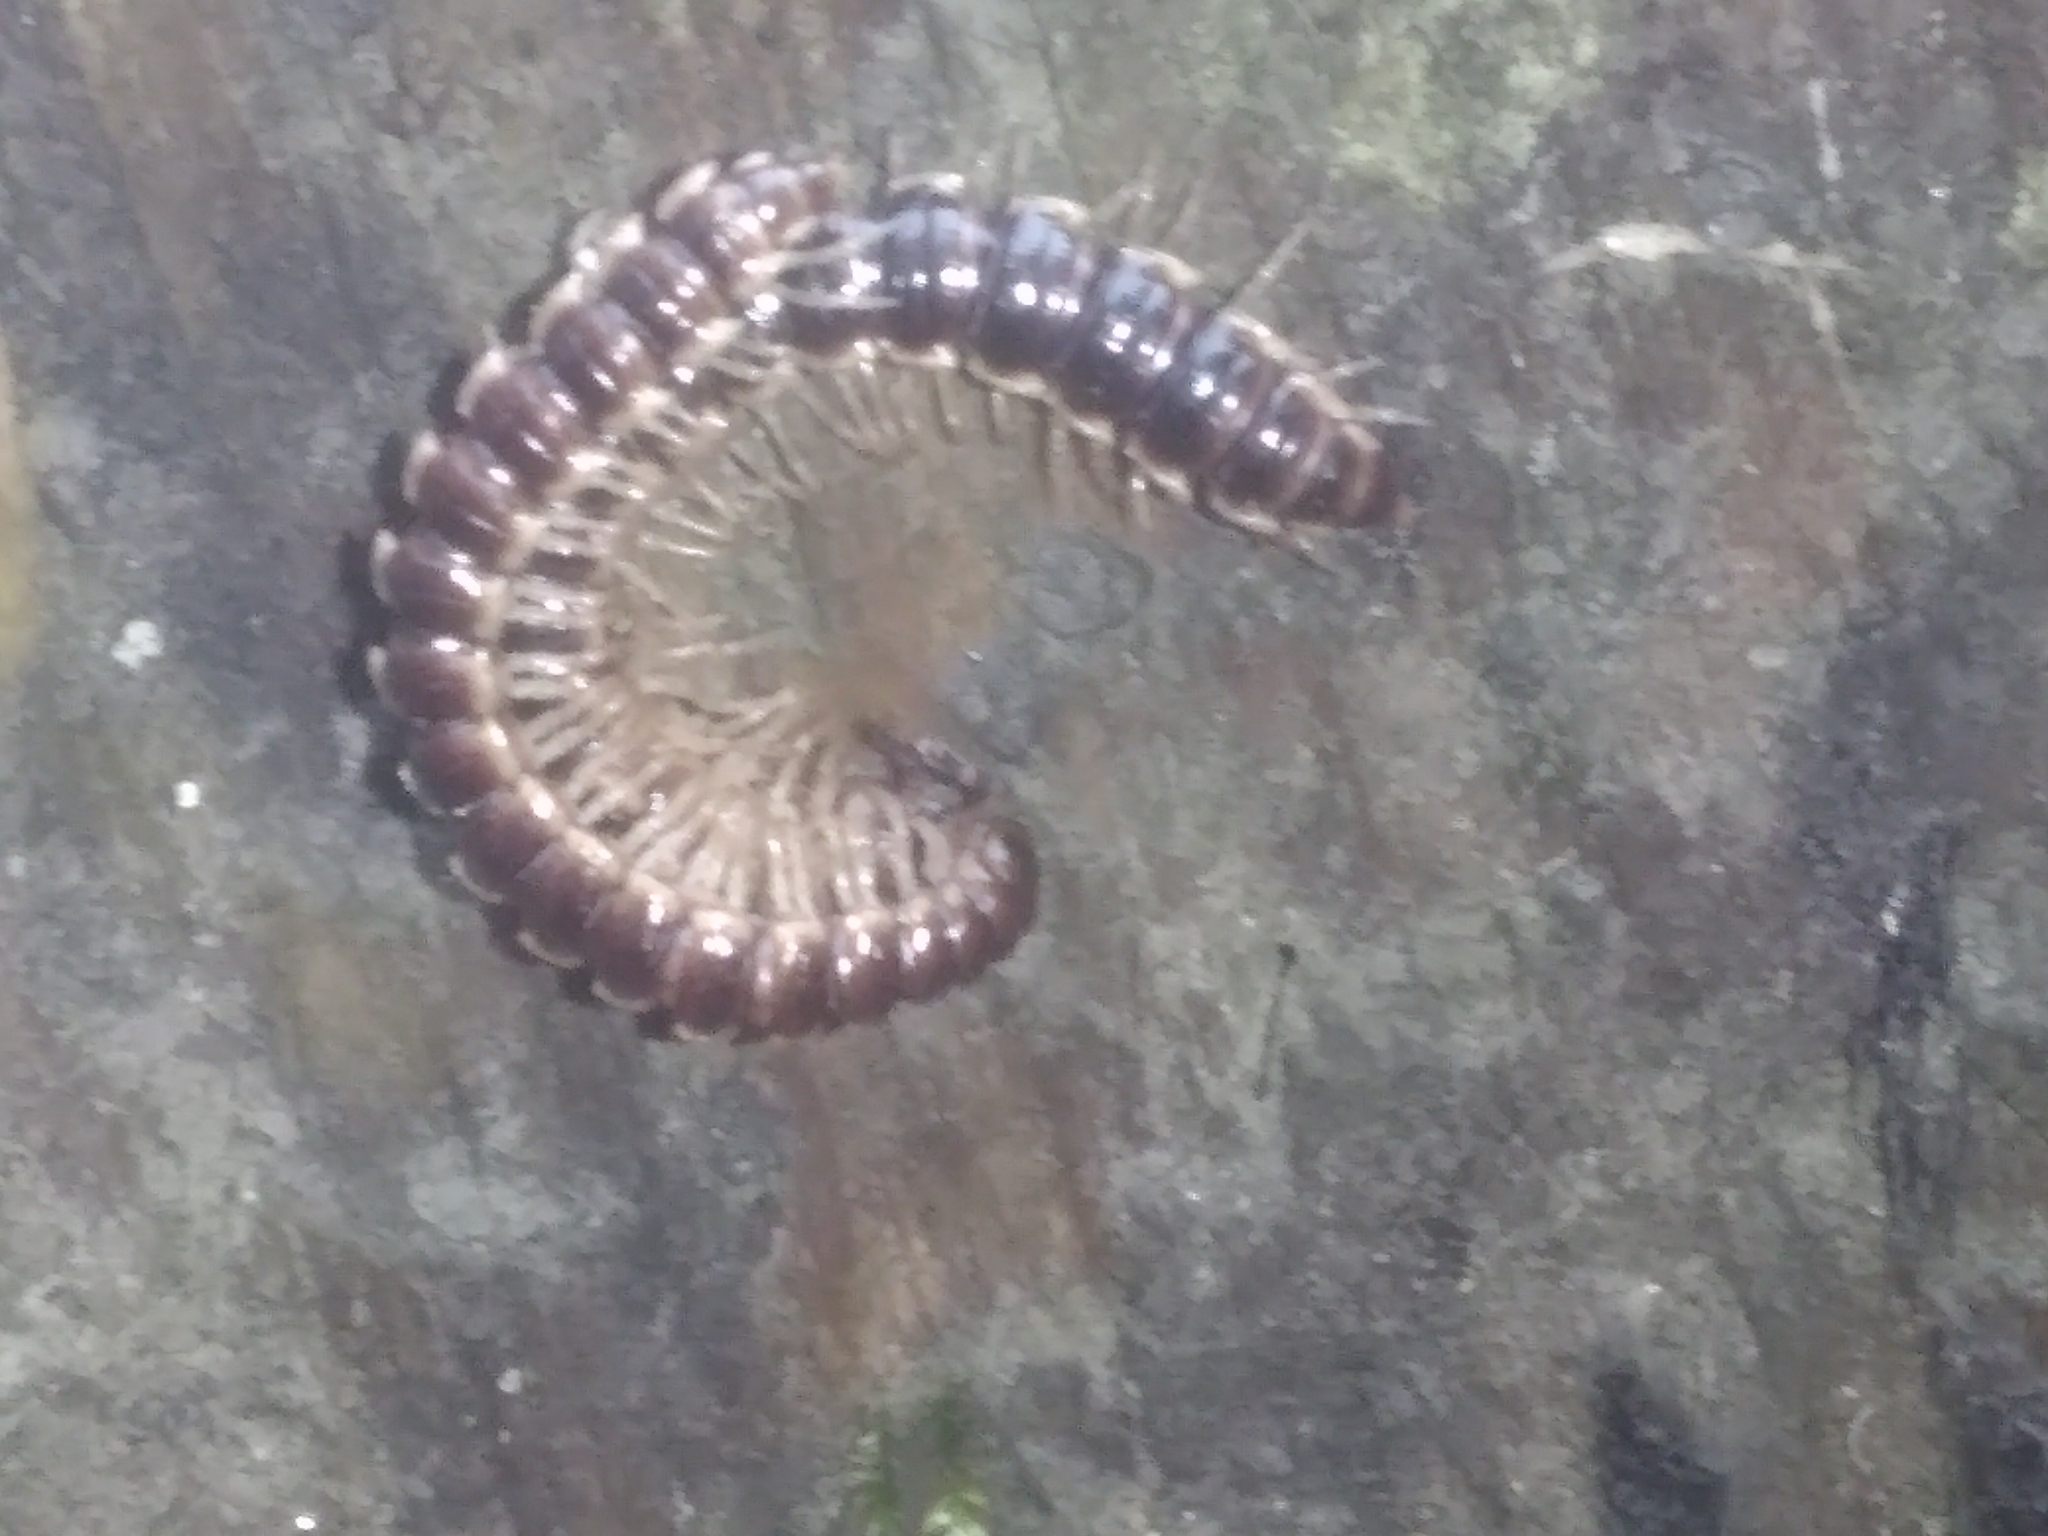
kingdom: Animalia
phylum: Arthropoda
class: Diplopoda
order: Polydesmida
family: Paradoxosomatidae
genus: Oxidus
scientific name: Oxidus gracilis
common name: Greenhouse millipede
